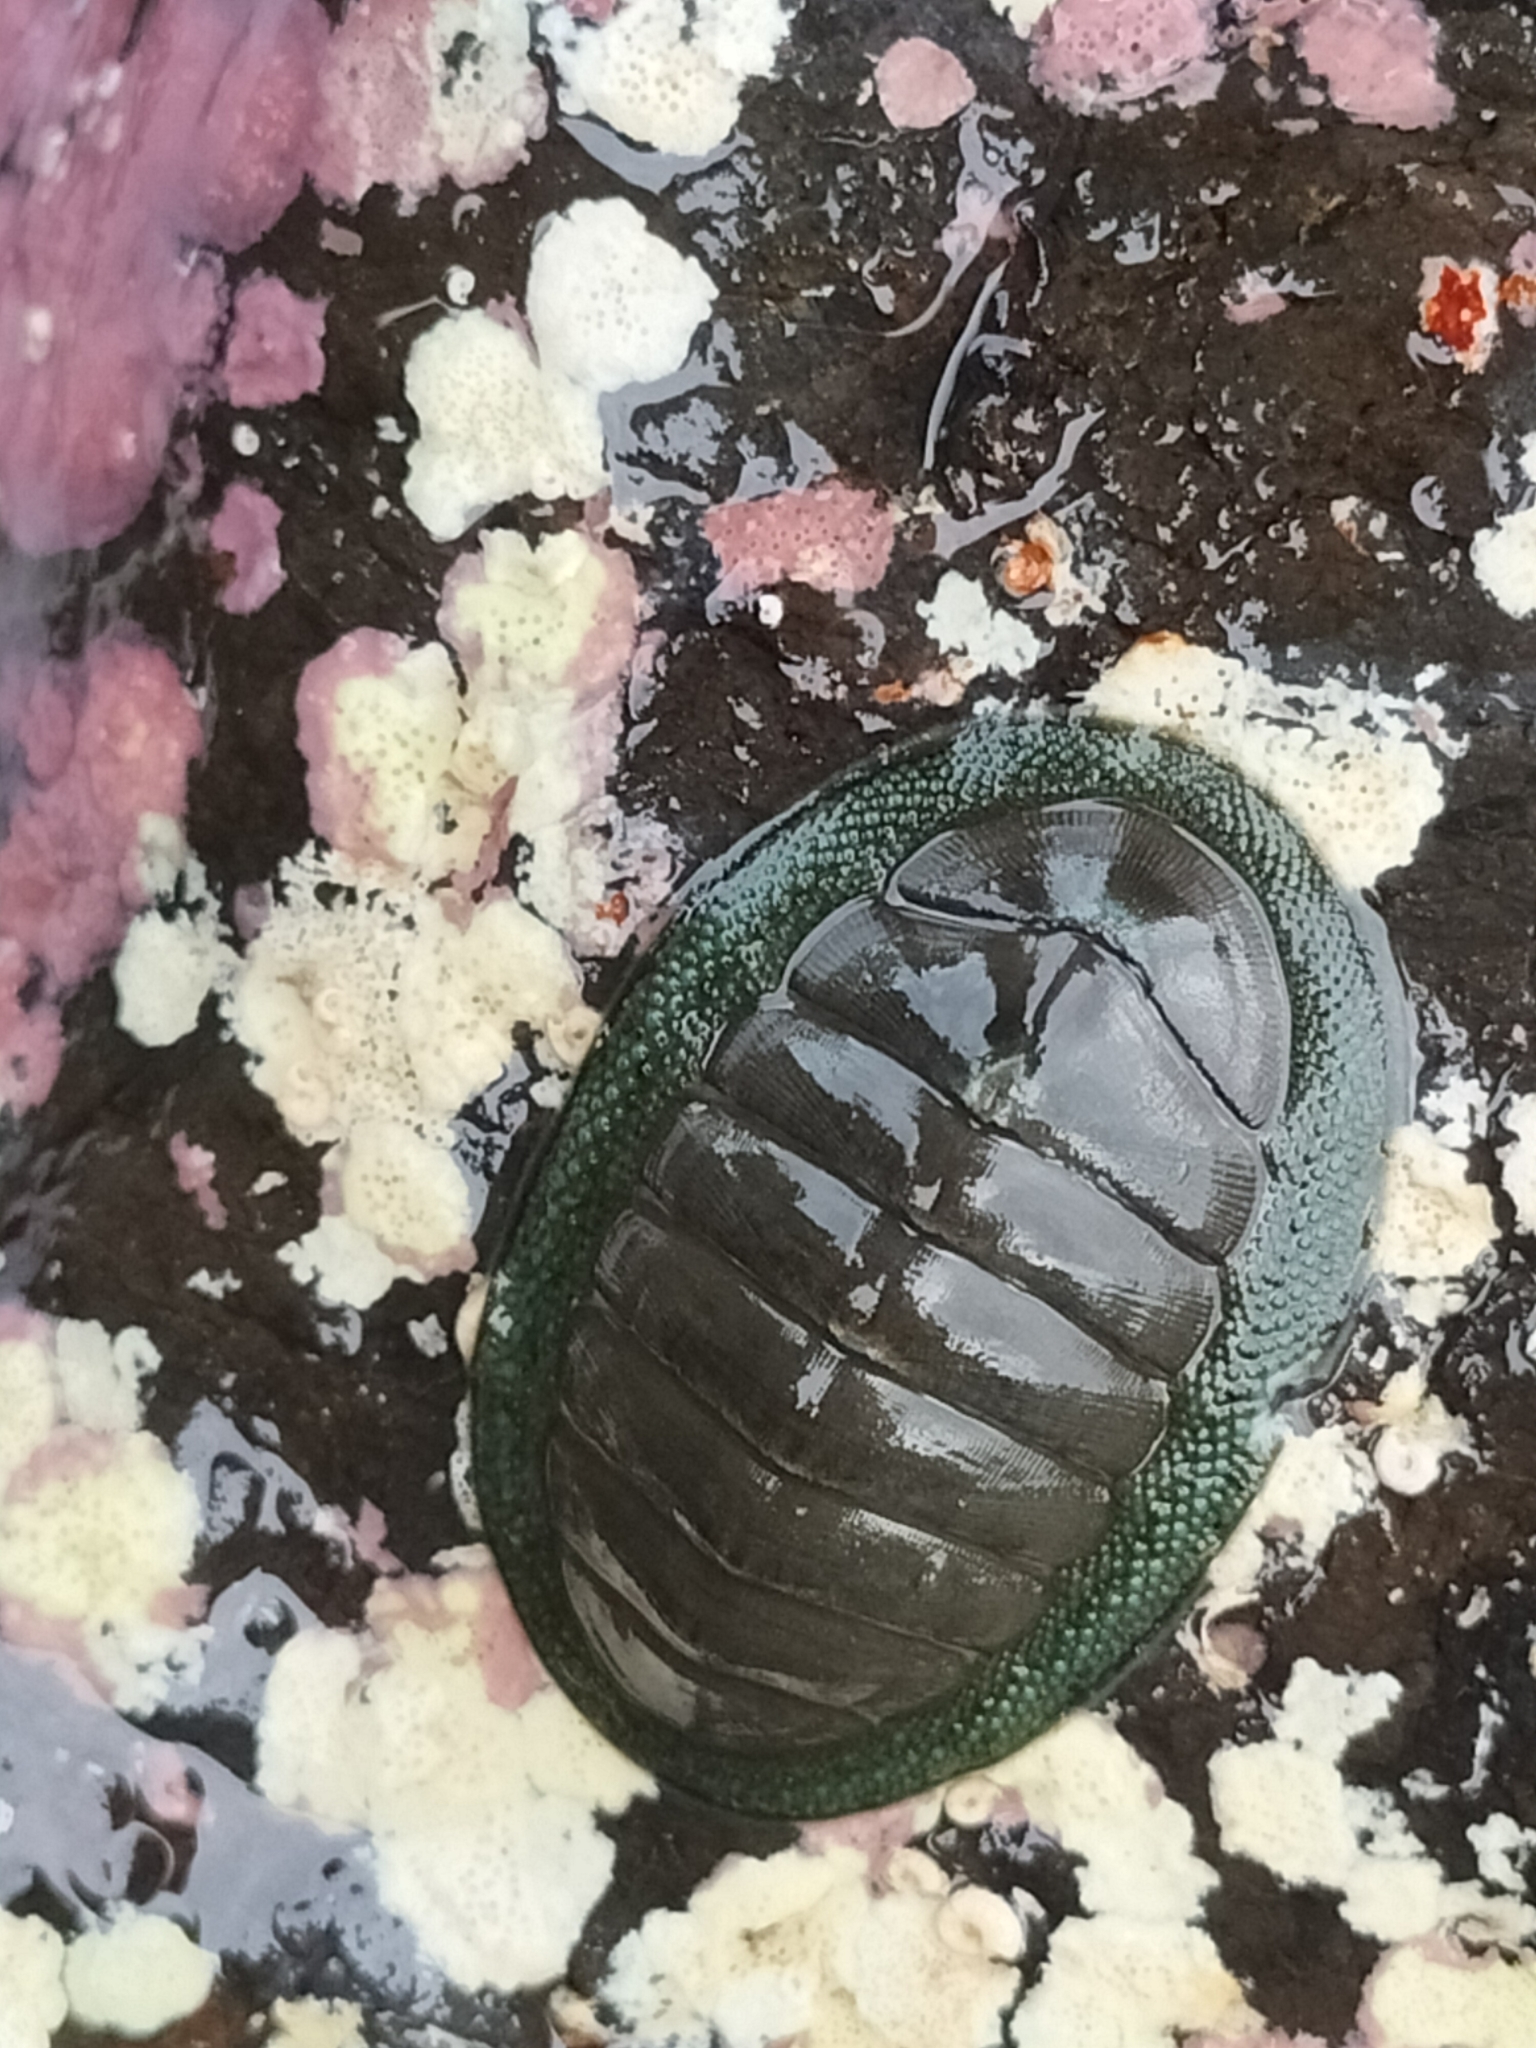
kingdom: Animalia
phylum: Mollusca
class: Polyplacophora
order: Chitonida
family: Chitonidae
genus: Chiton
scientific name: Chiton glaucus
